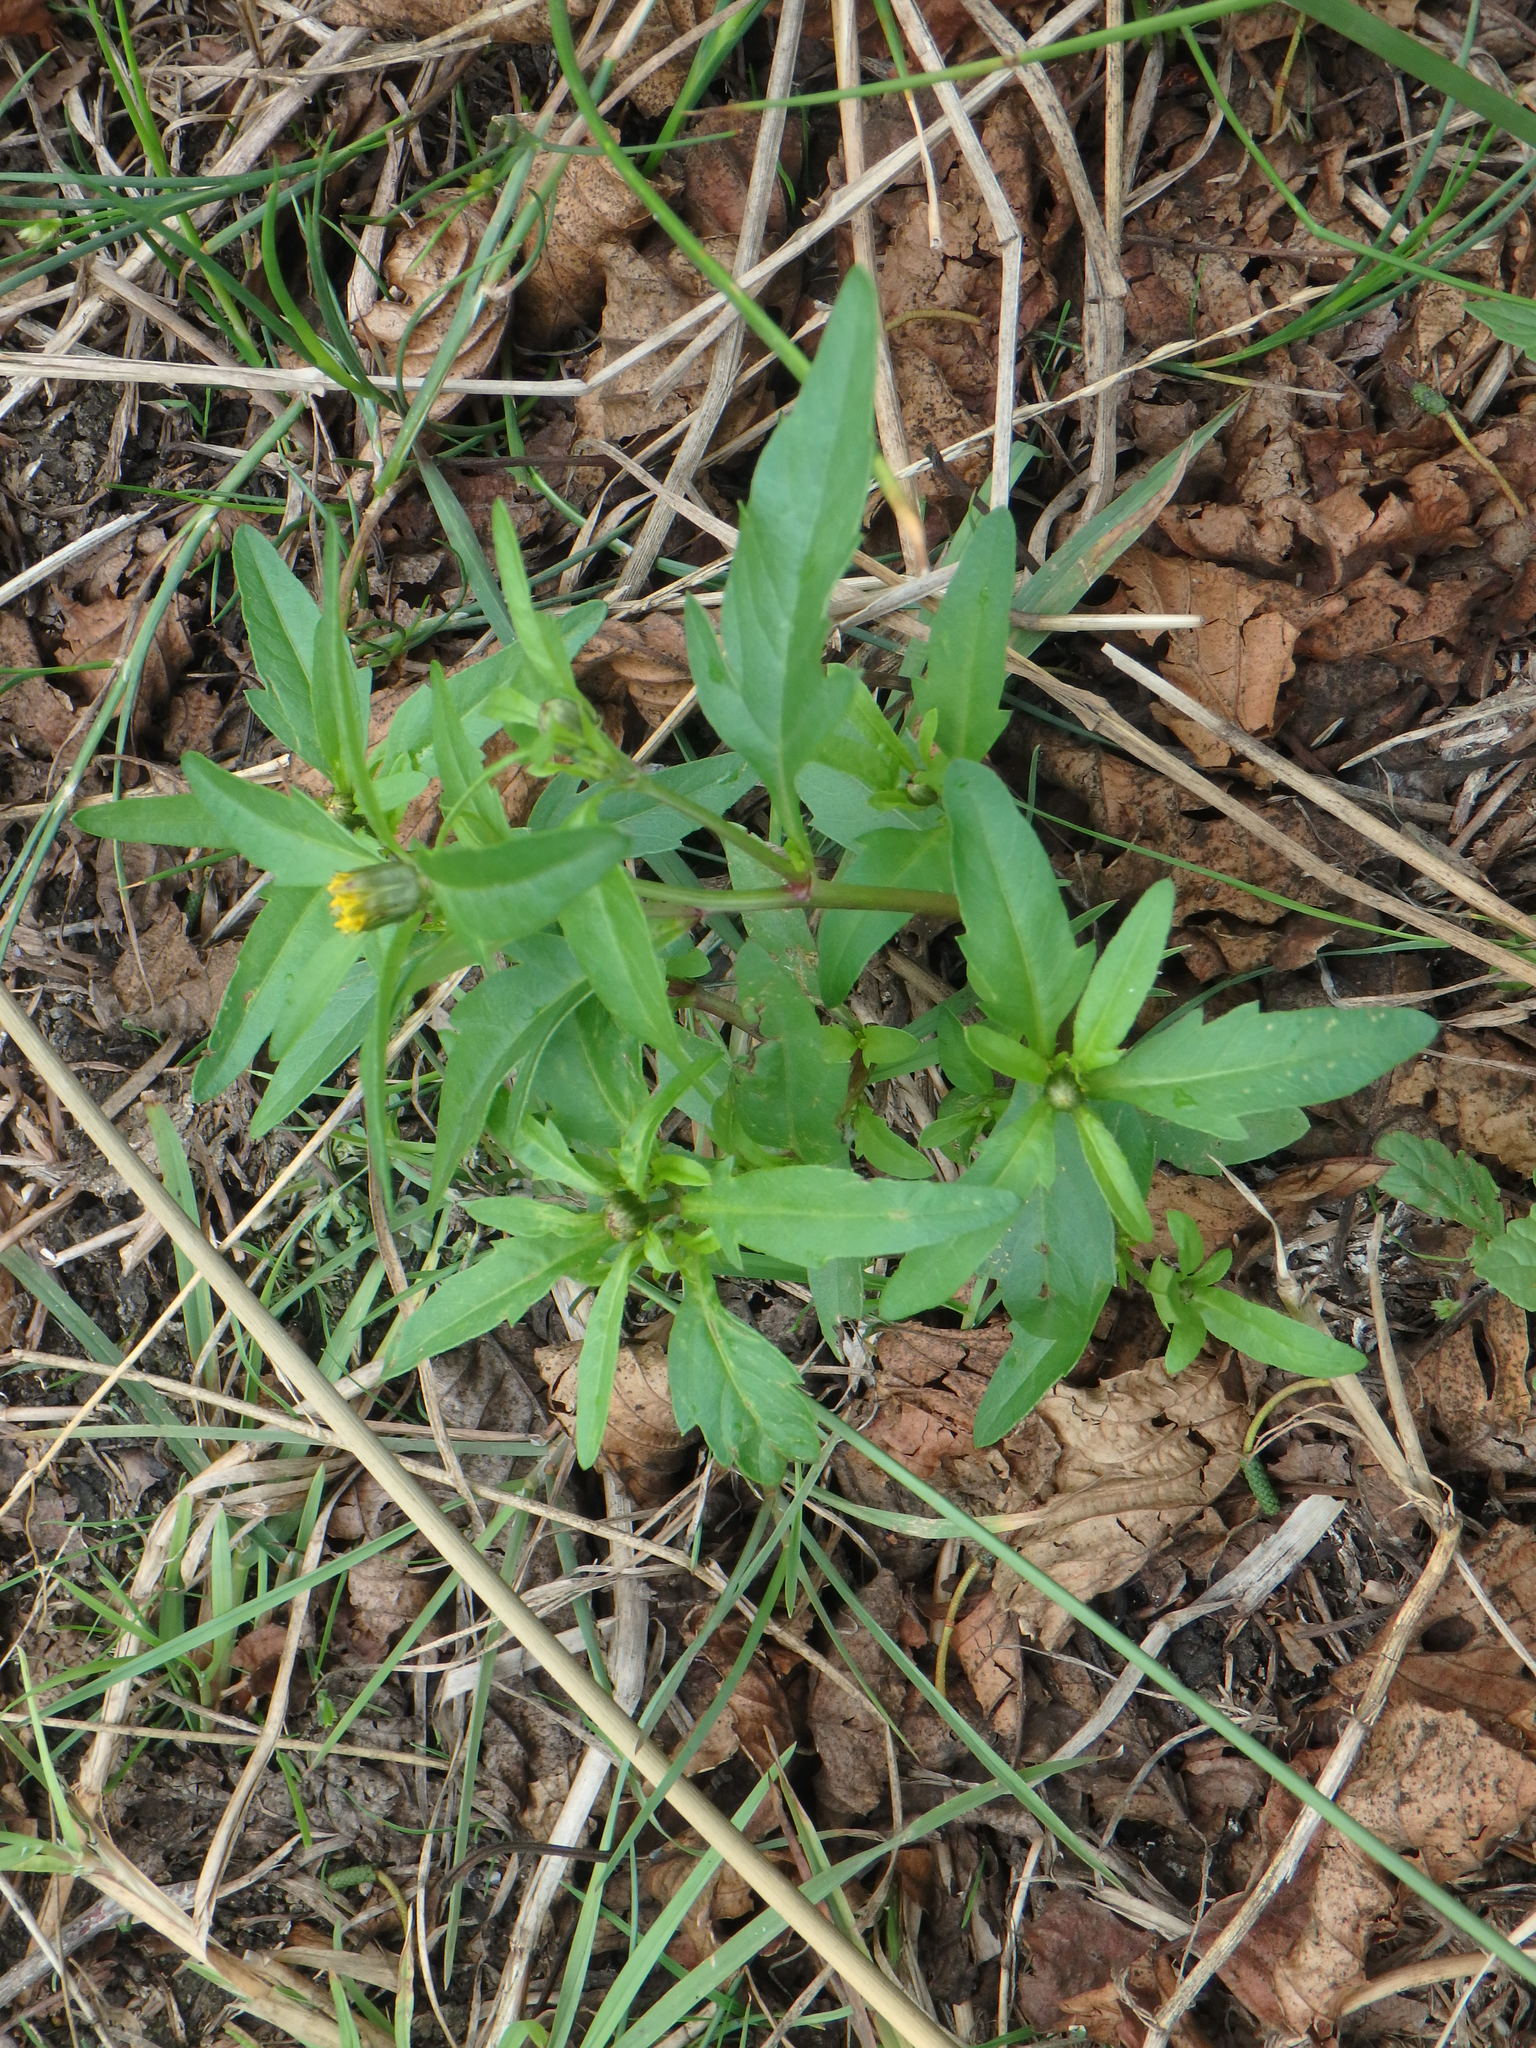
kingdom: Plantae
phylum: Tracheophyta
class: Magnoliopsida
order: Asterales
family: Asteraceae
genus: Bidens
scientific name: Bidens tripartita
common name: Trifid bur-marigold
